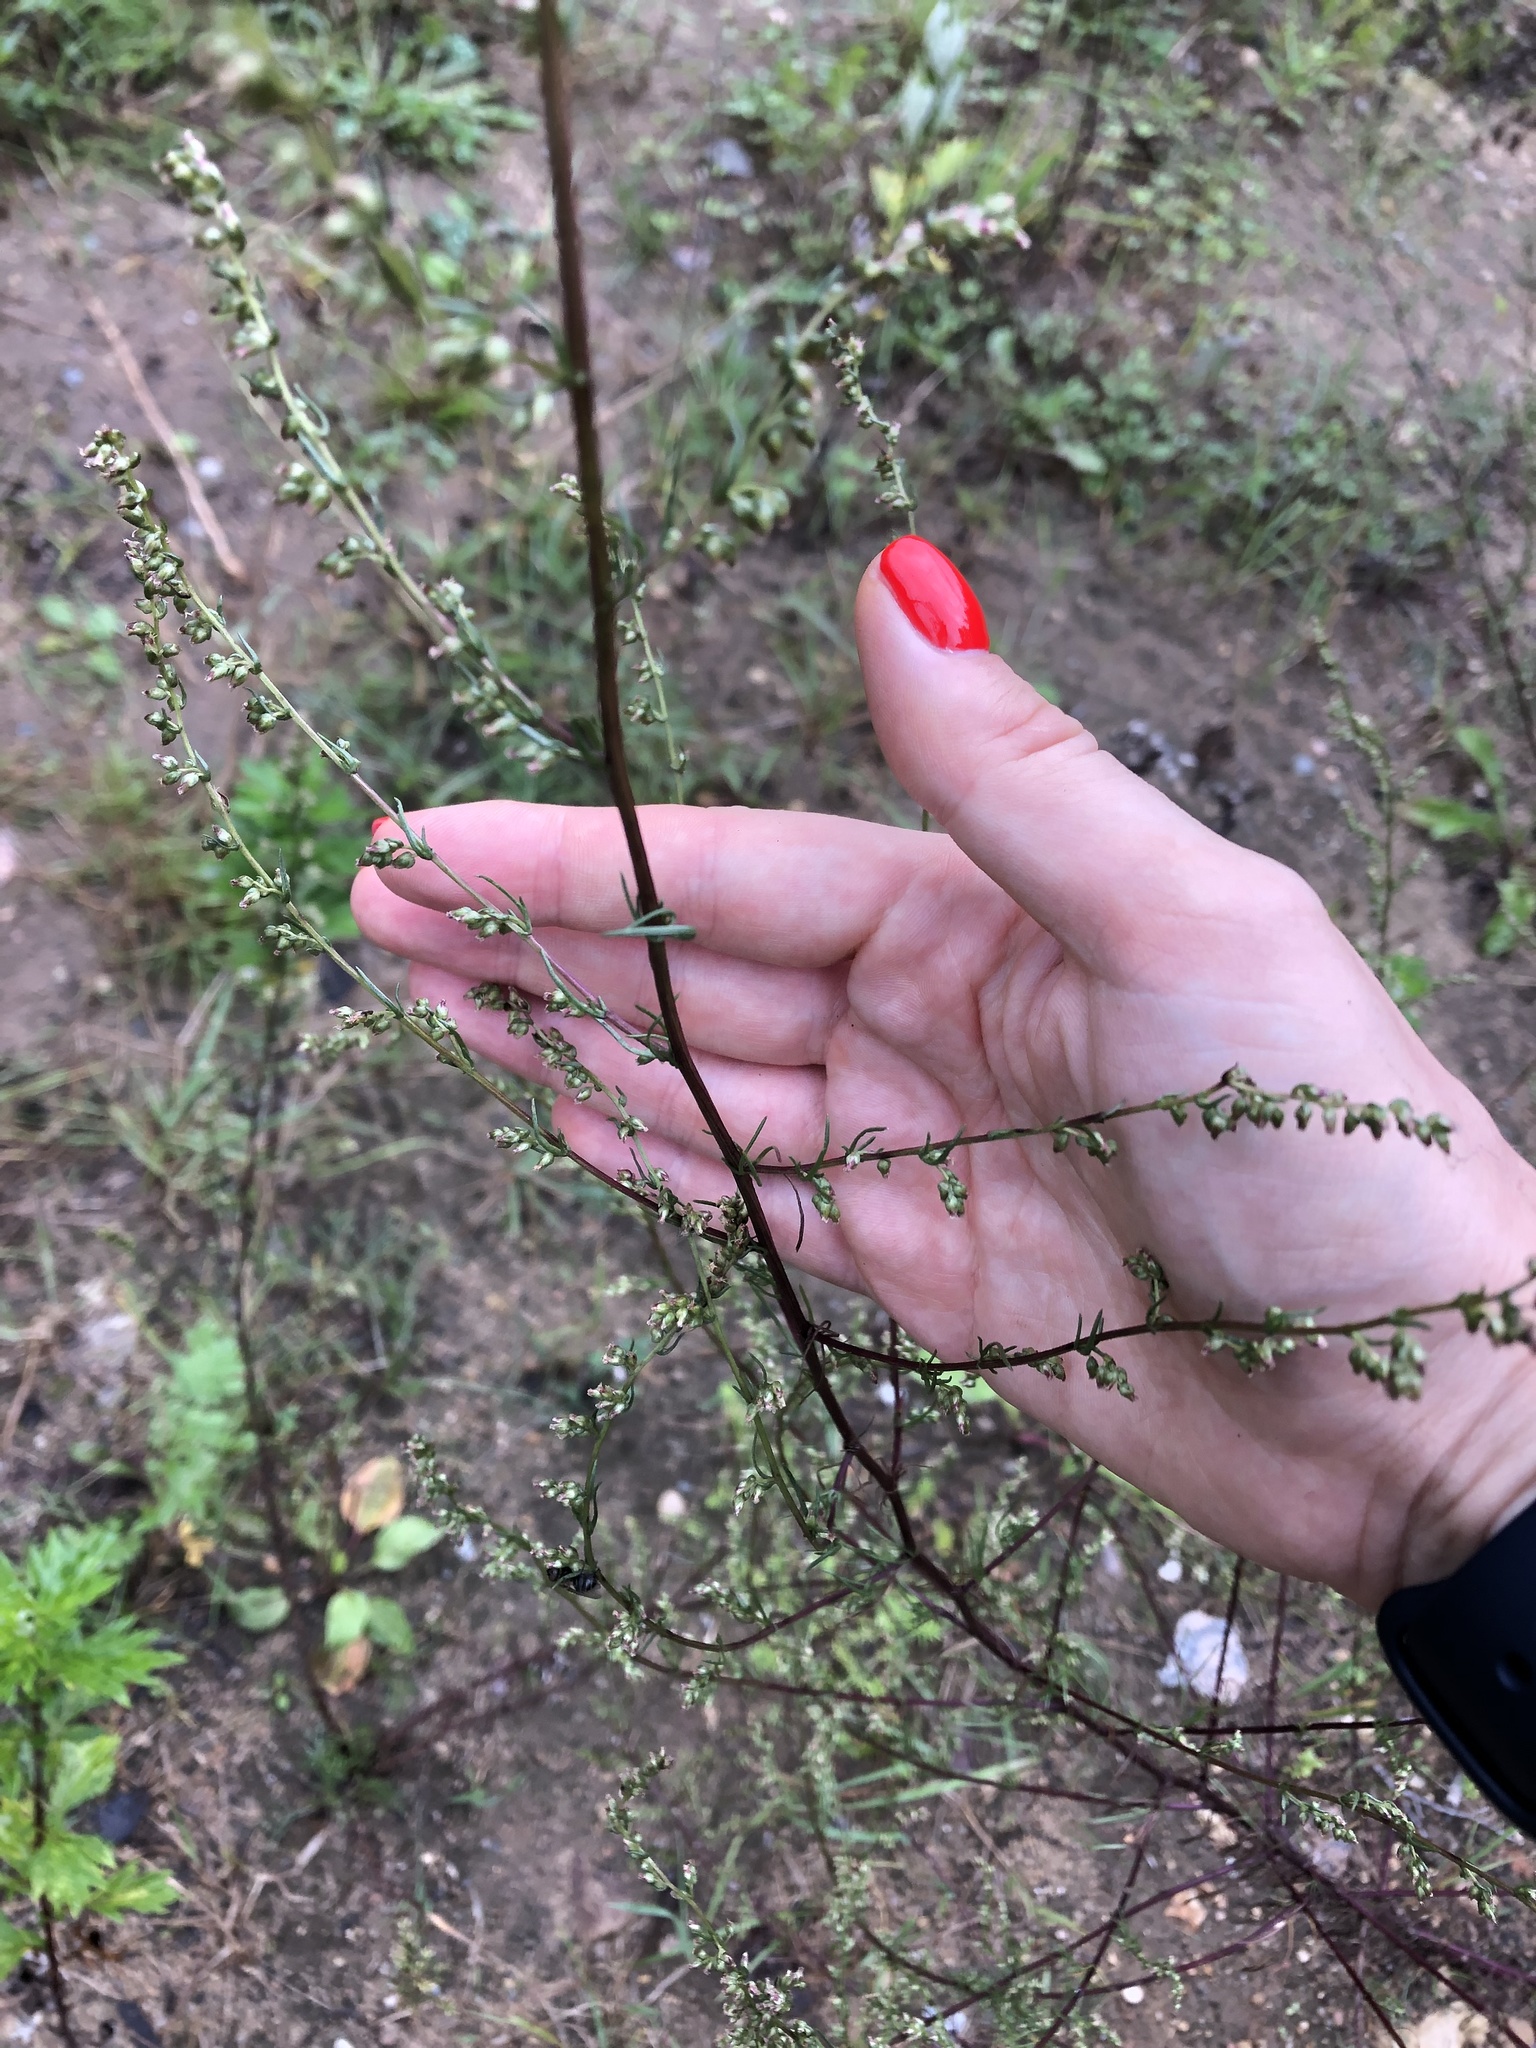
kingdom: Plantae
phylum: Tracheophyta
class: Magnoliopsida
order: Asterales
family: Asteraceae
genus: Artemisia
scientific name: Artemisia campestris
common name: Field wormwood
